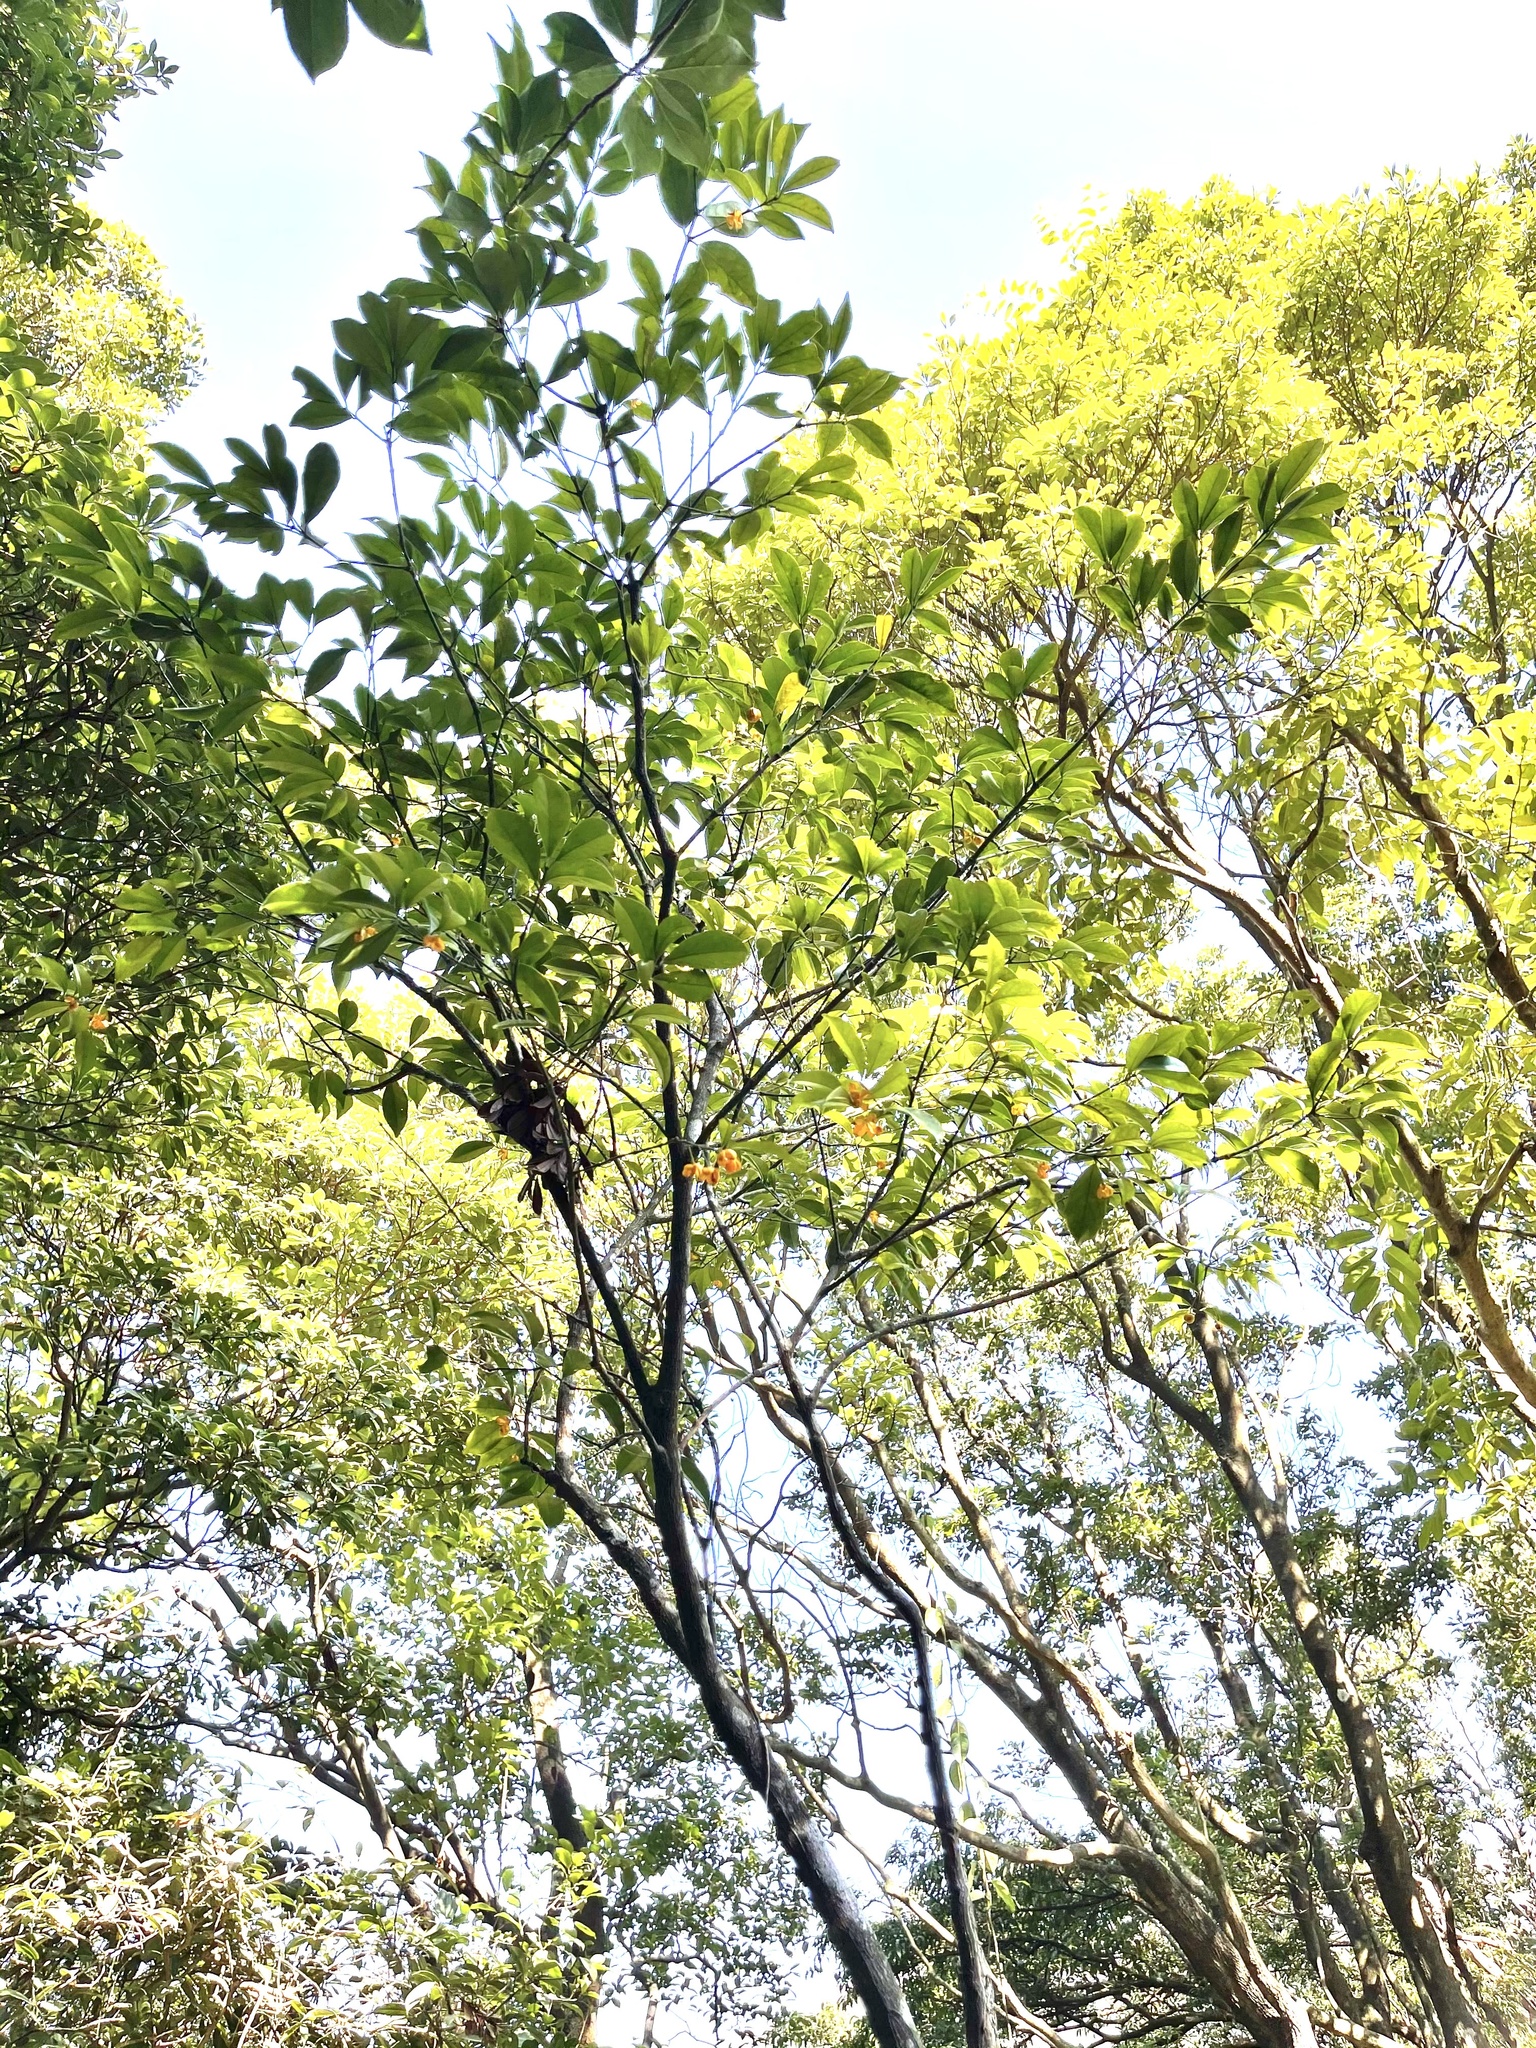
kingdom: Plantae
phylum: Tracheophyta
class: Magnoliopsida
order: Celastrales
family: Celastraceae
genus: Euonymus
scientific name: Euonymus nitidus
